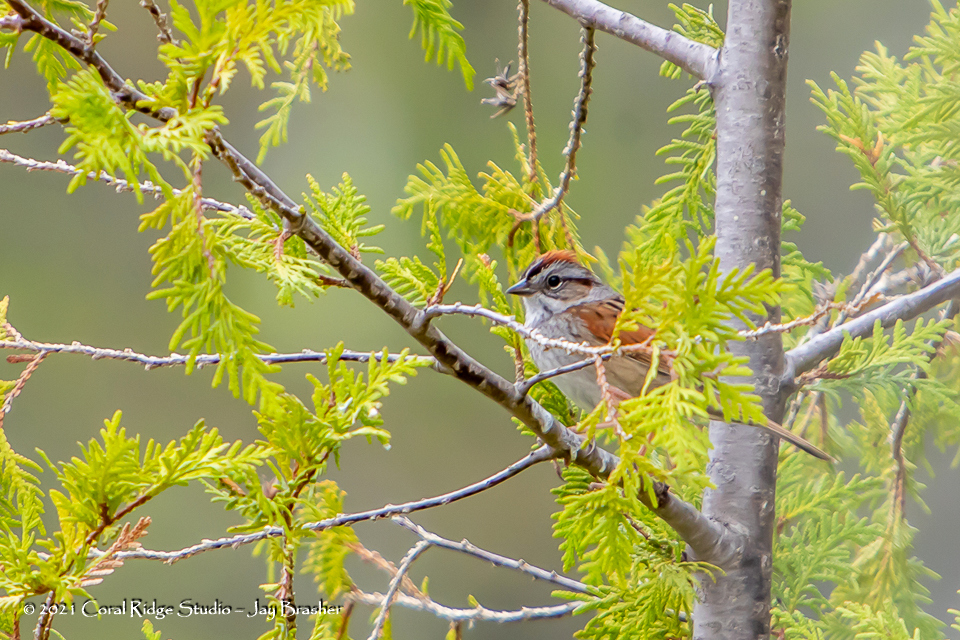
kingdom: Animalia
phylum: Chordata
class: Aves
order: Passeriformes
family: Passerellidae
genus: Melospiza
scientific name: Melospiza georgiana
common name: Swamp sparrow
